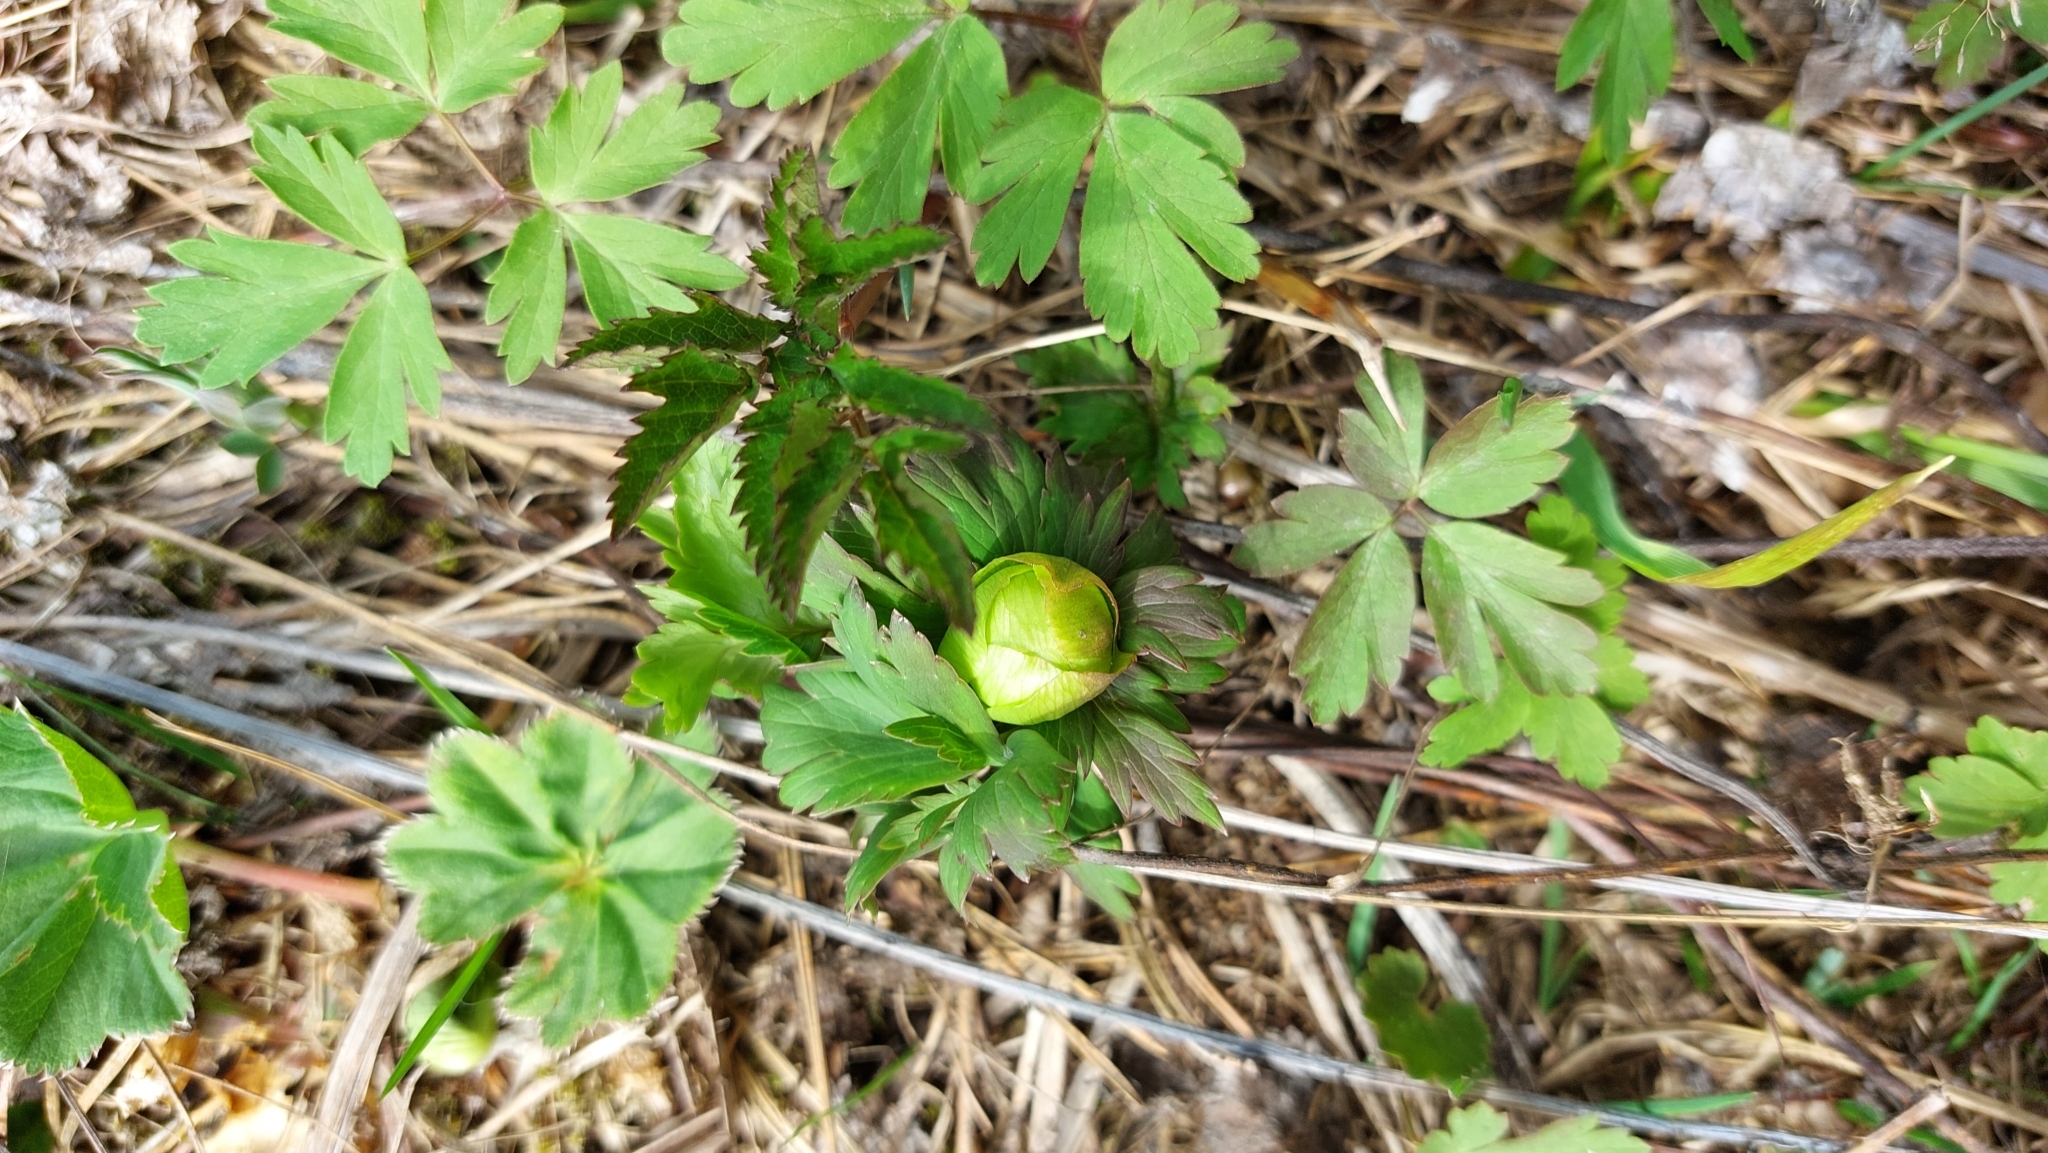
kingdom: Plantae
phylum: Tracheophyta
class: Magnoliopsida
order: Ranunculales
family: Ranunculaceae
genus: Trollius
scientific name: Trollius europaeus
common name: European globeflower
